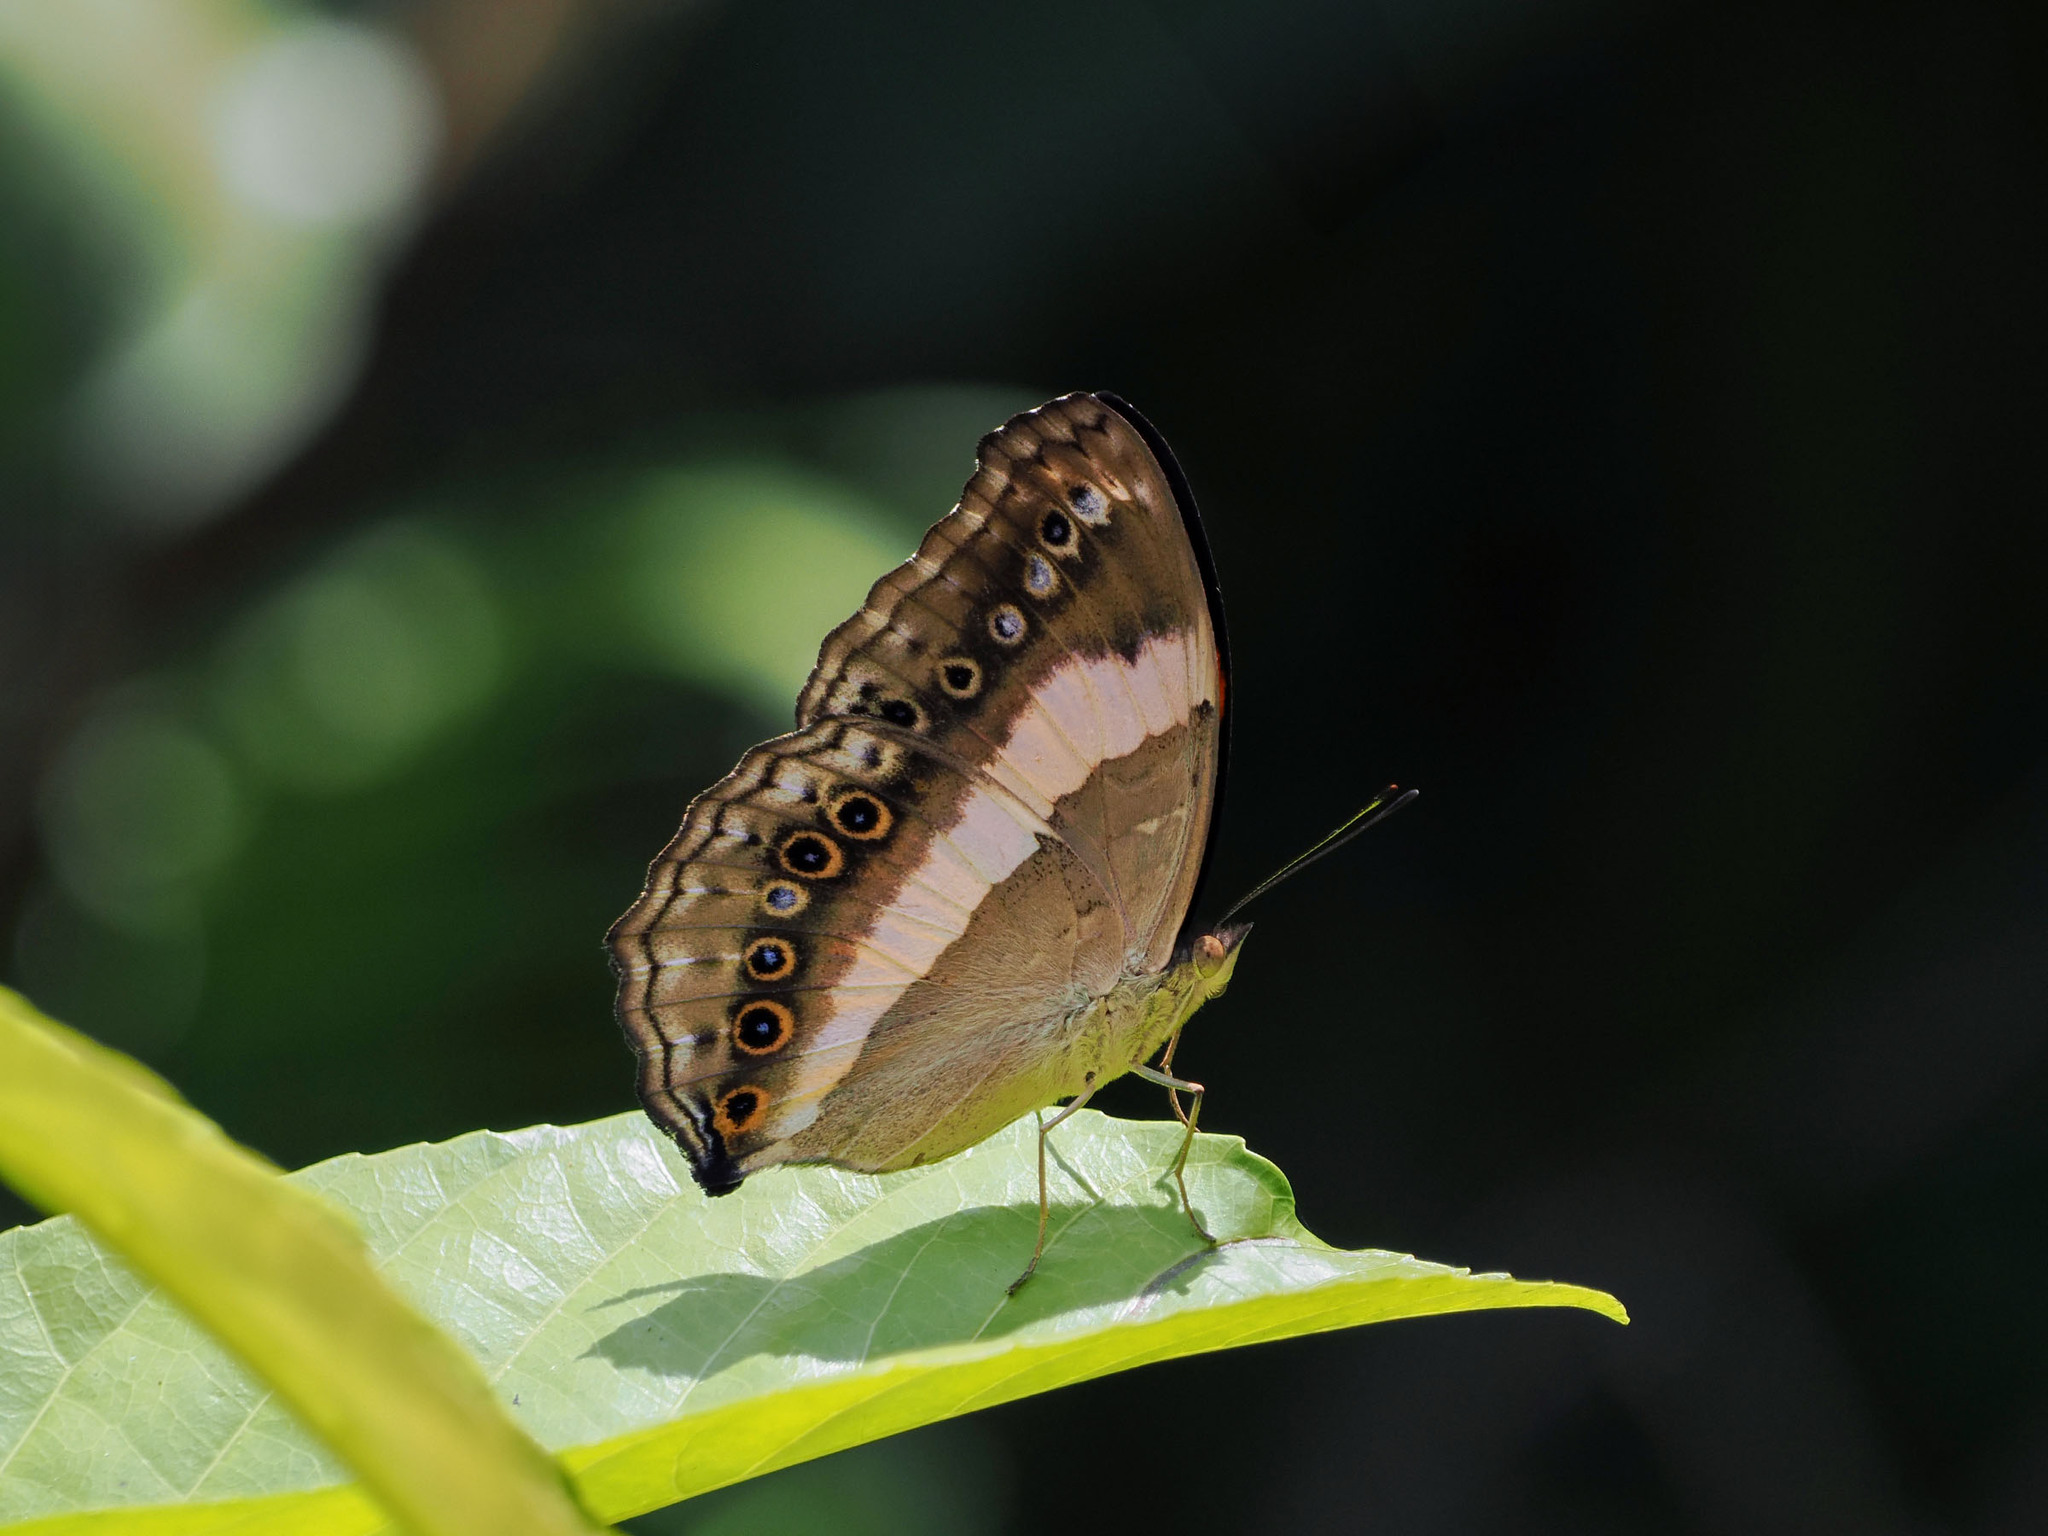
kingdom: Animalia
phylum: Arthropoda
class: Insecta
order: Lepidoptera
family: Nymphalidae
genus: Yoma
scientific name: Yoma algina
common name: New guinea lurcher
